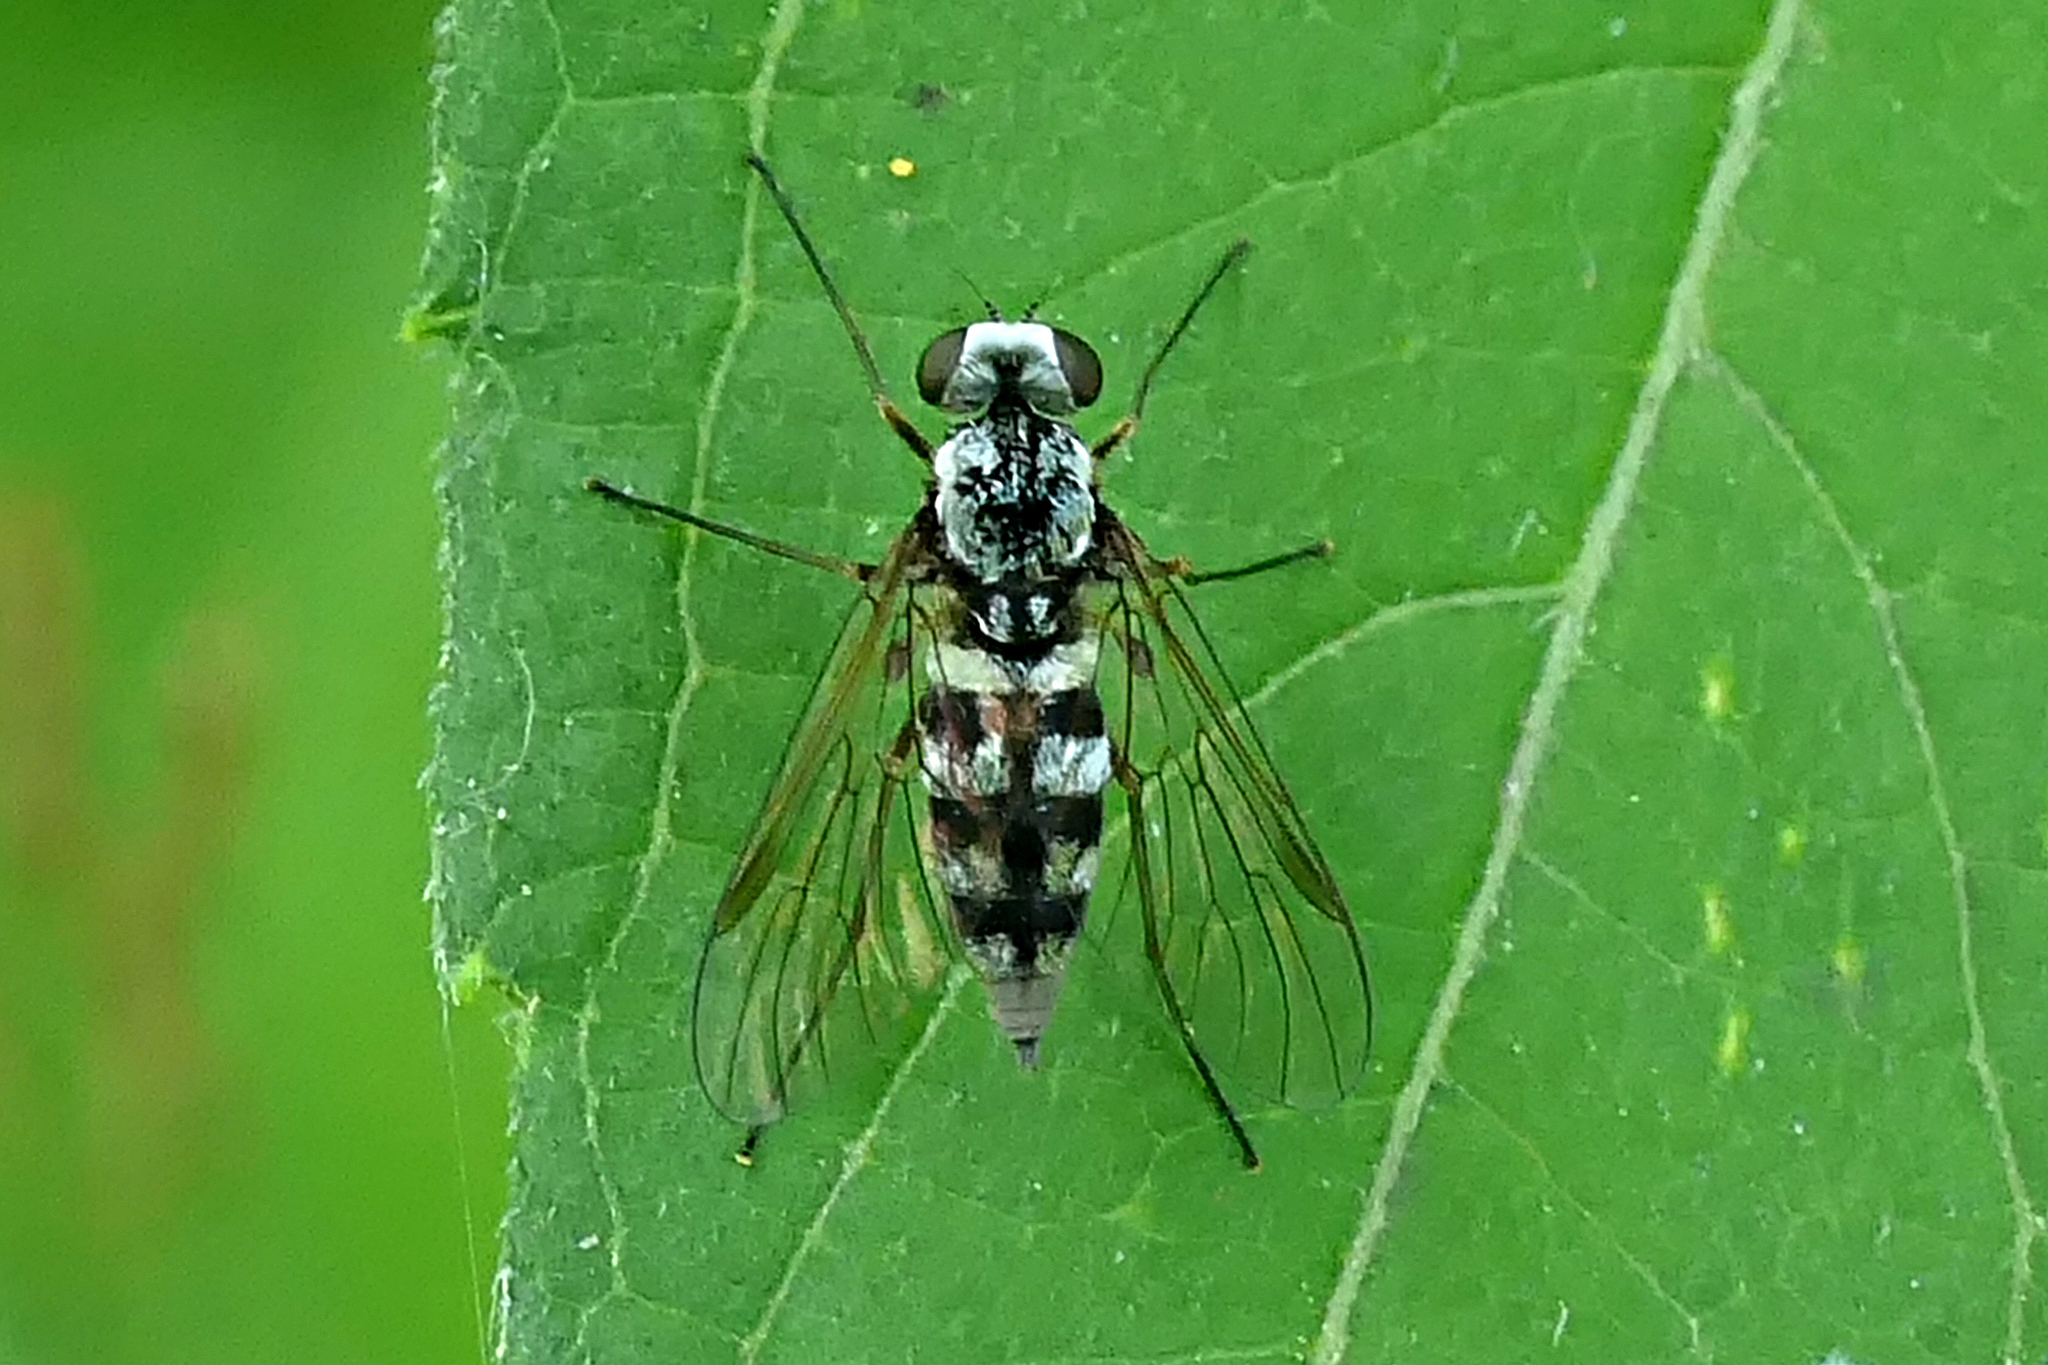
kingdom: Animalia
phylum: Arthropoda
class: Insecta
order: Diptera
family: Rhagionidae
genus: Chrysopilus
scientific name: Chrysopilus fasciatus
